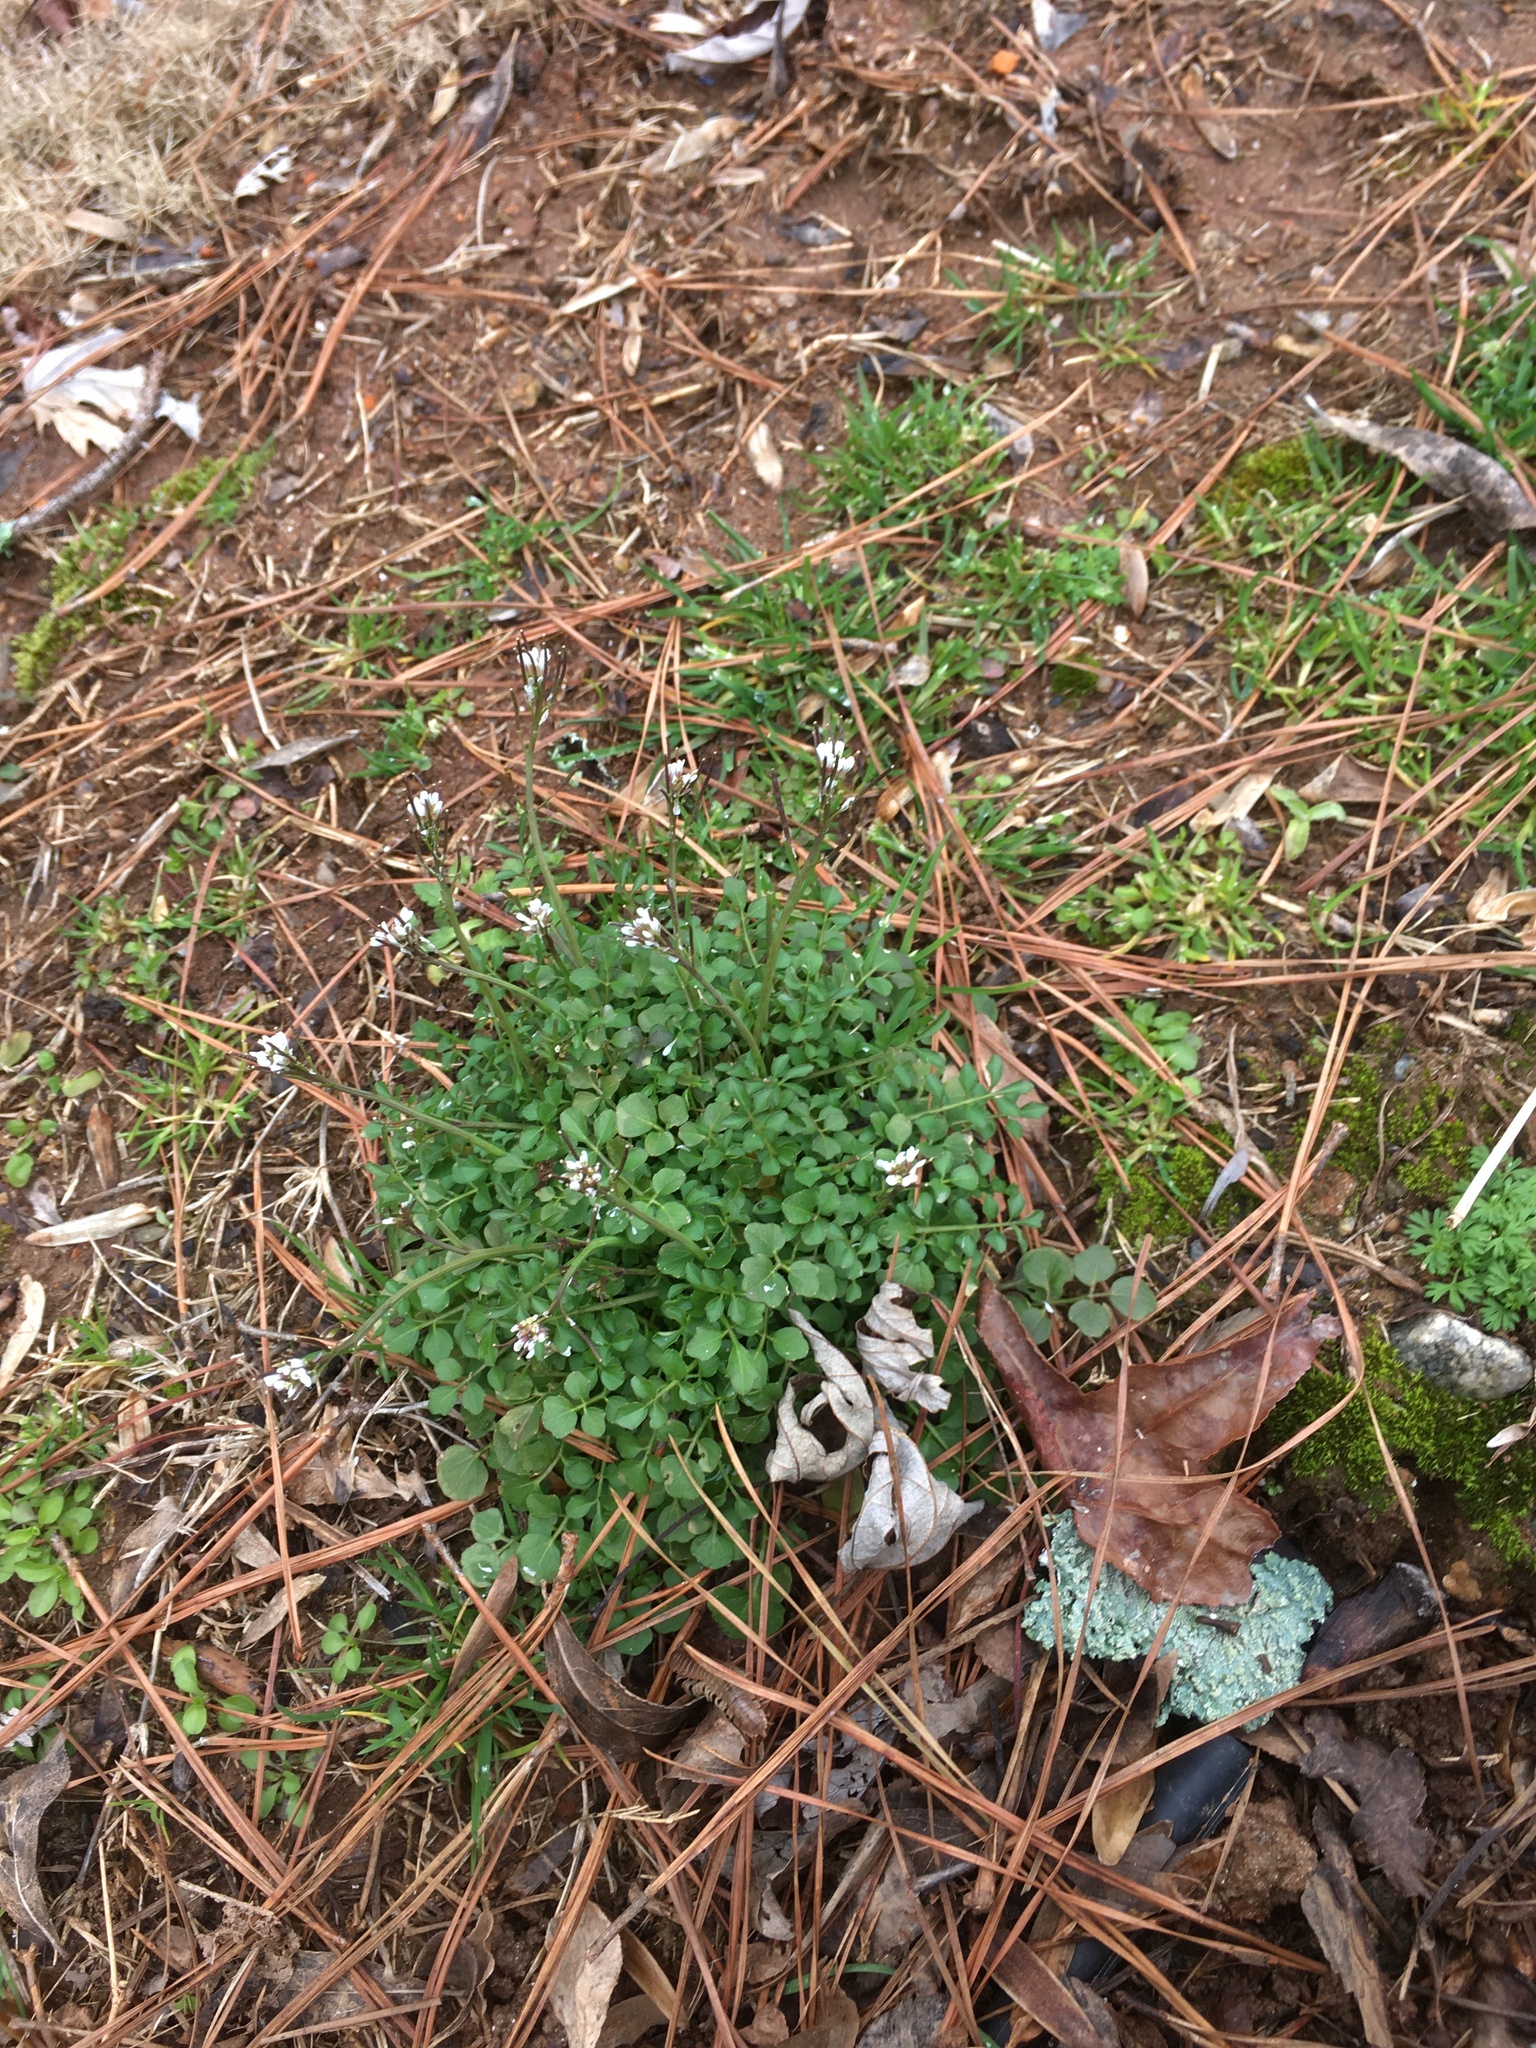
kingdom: Plantae
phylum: Tracheophyta
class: Magnoliopsida
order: Brassicales
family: Brassicaceae
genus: Cardamine
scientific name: Cardamine hirsuta
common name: Hairy bittercress
